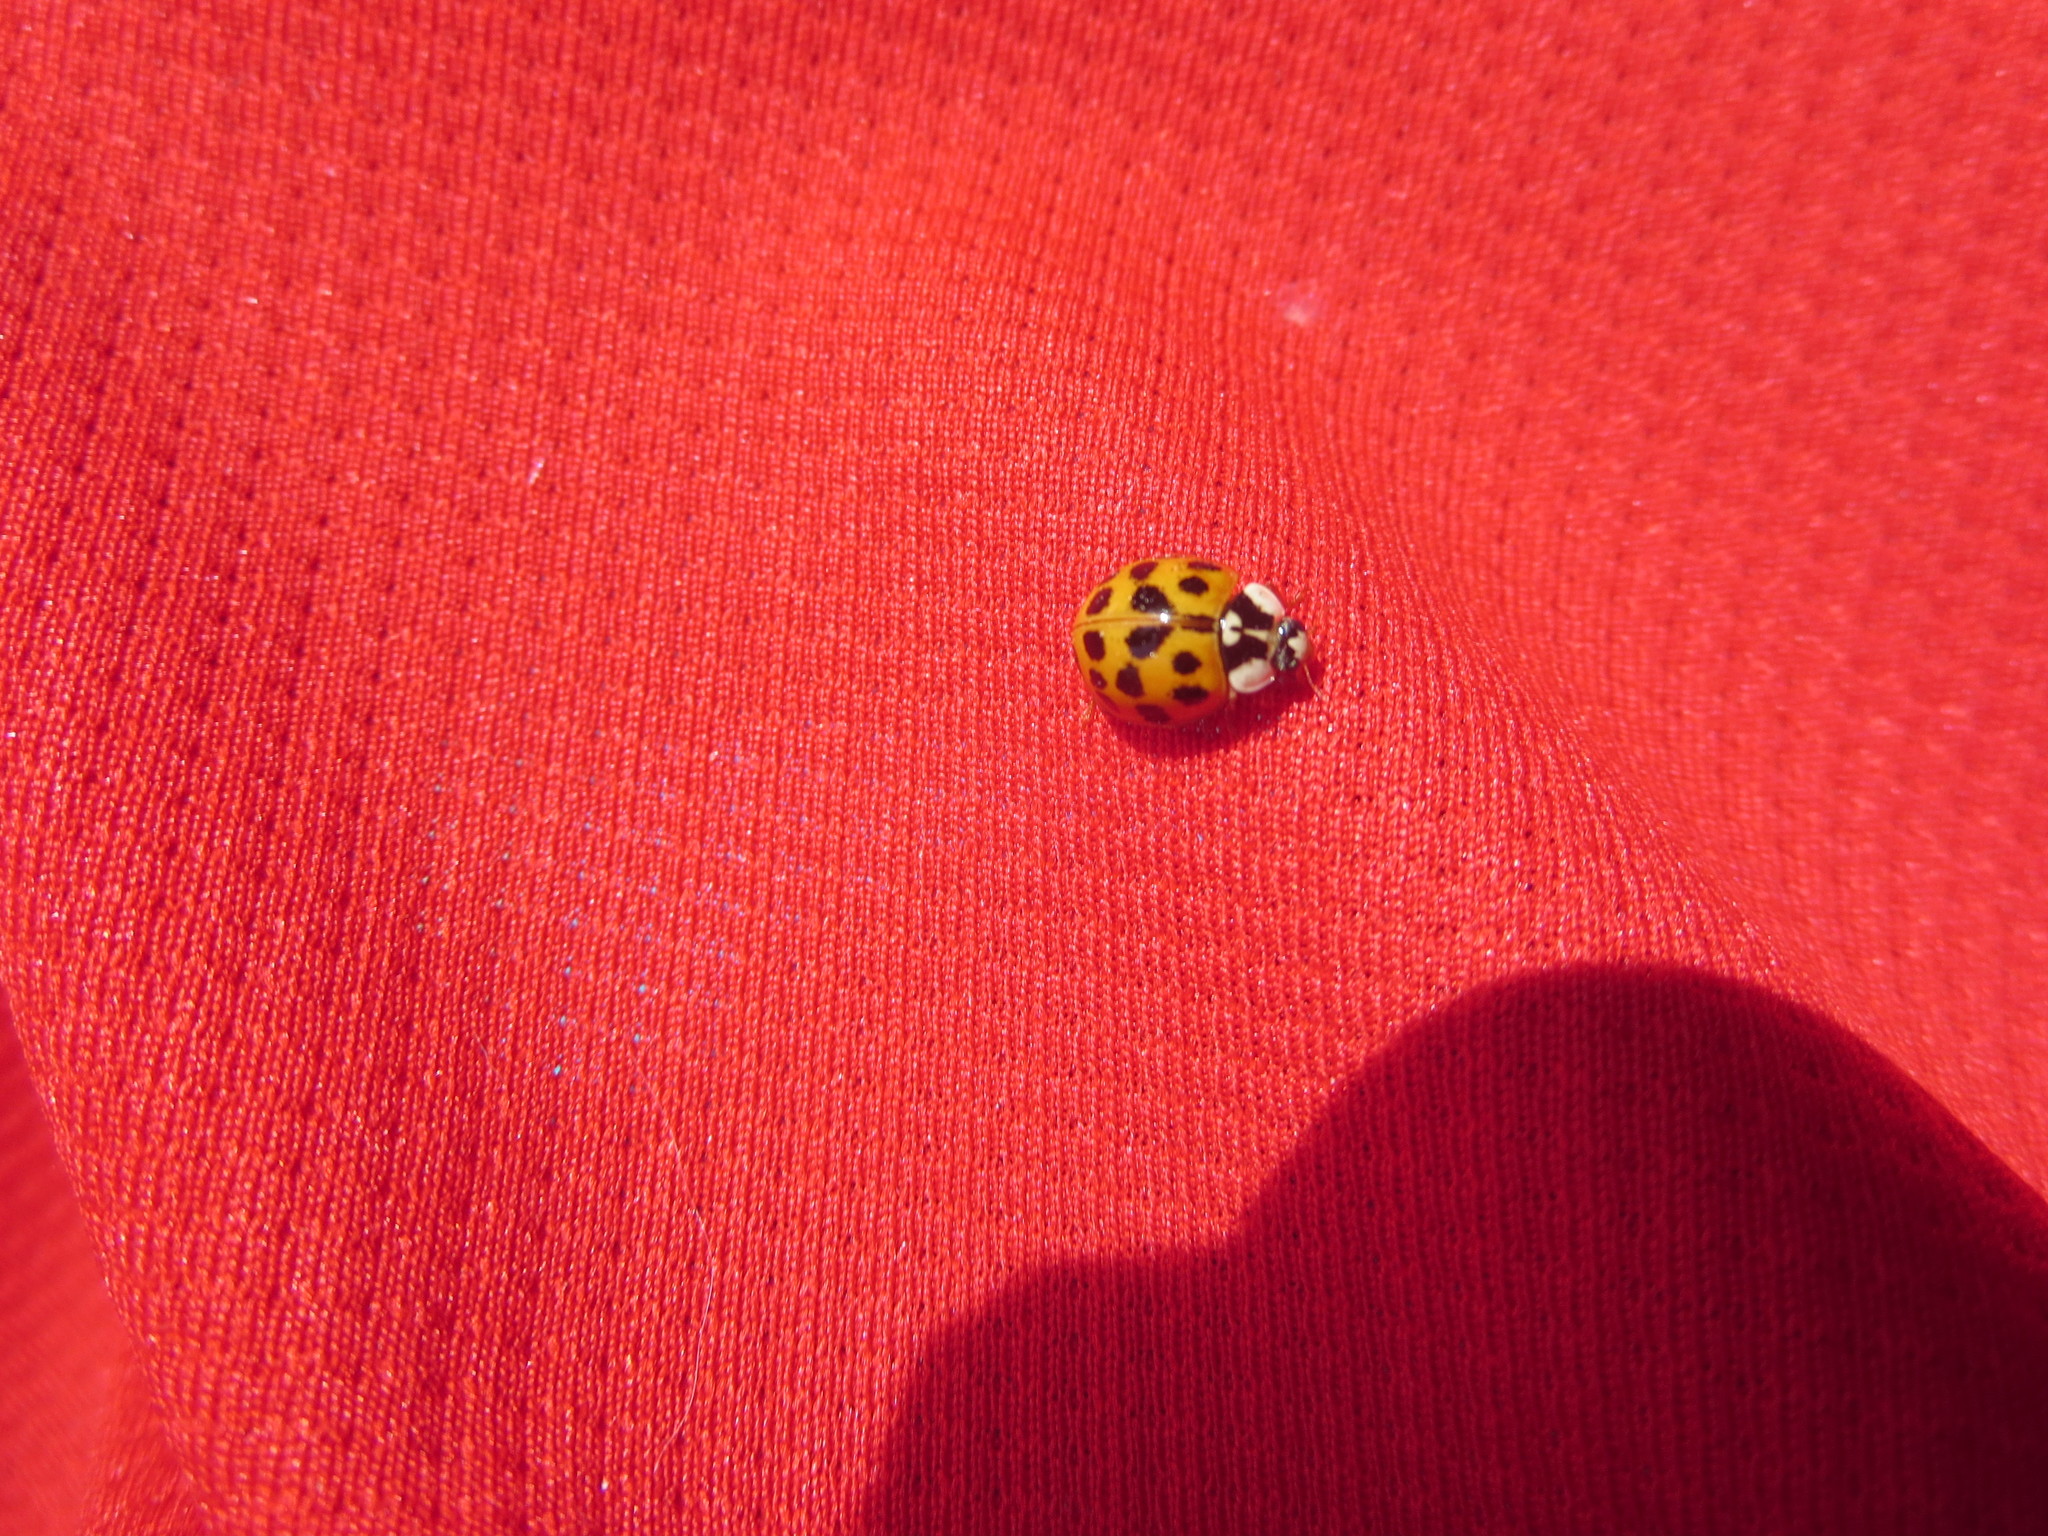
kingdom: Animalia
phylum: Arthropoda
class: Insecta
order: Coleoptera
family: Coccinellidae
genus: Harmonia
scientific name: Harmonia axyridis
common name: Harlequin ladybird
